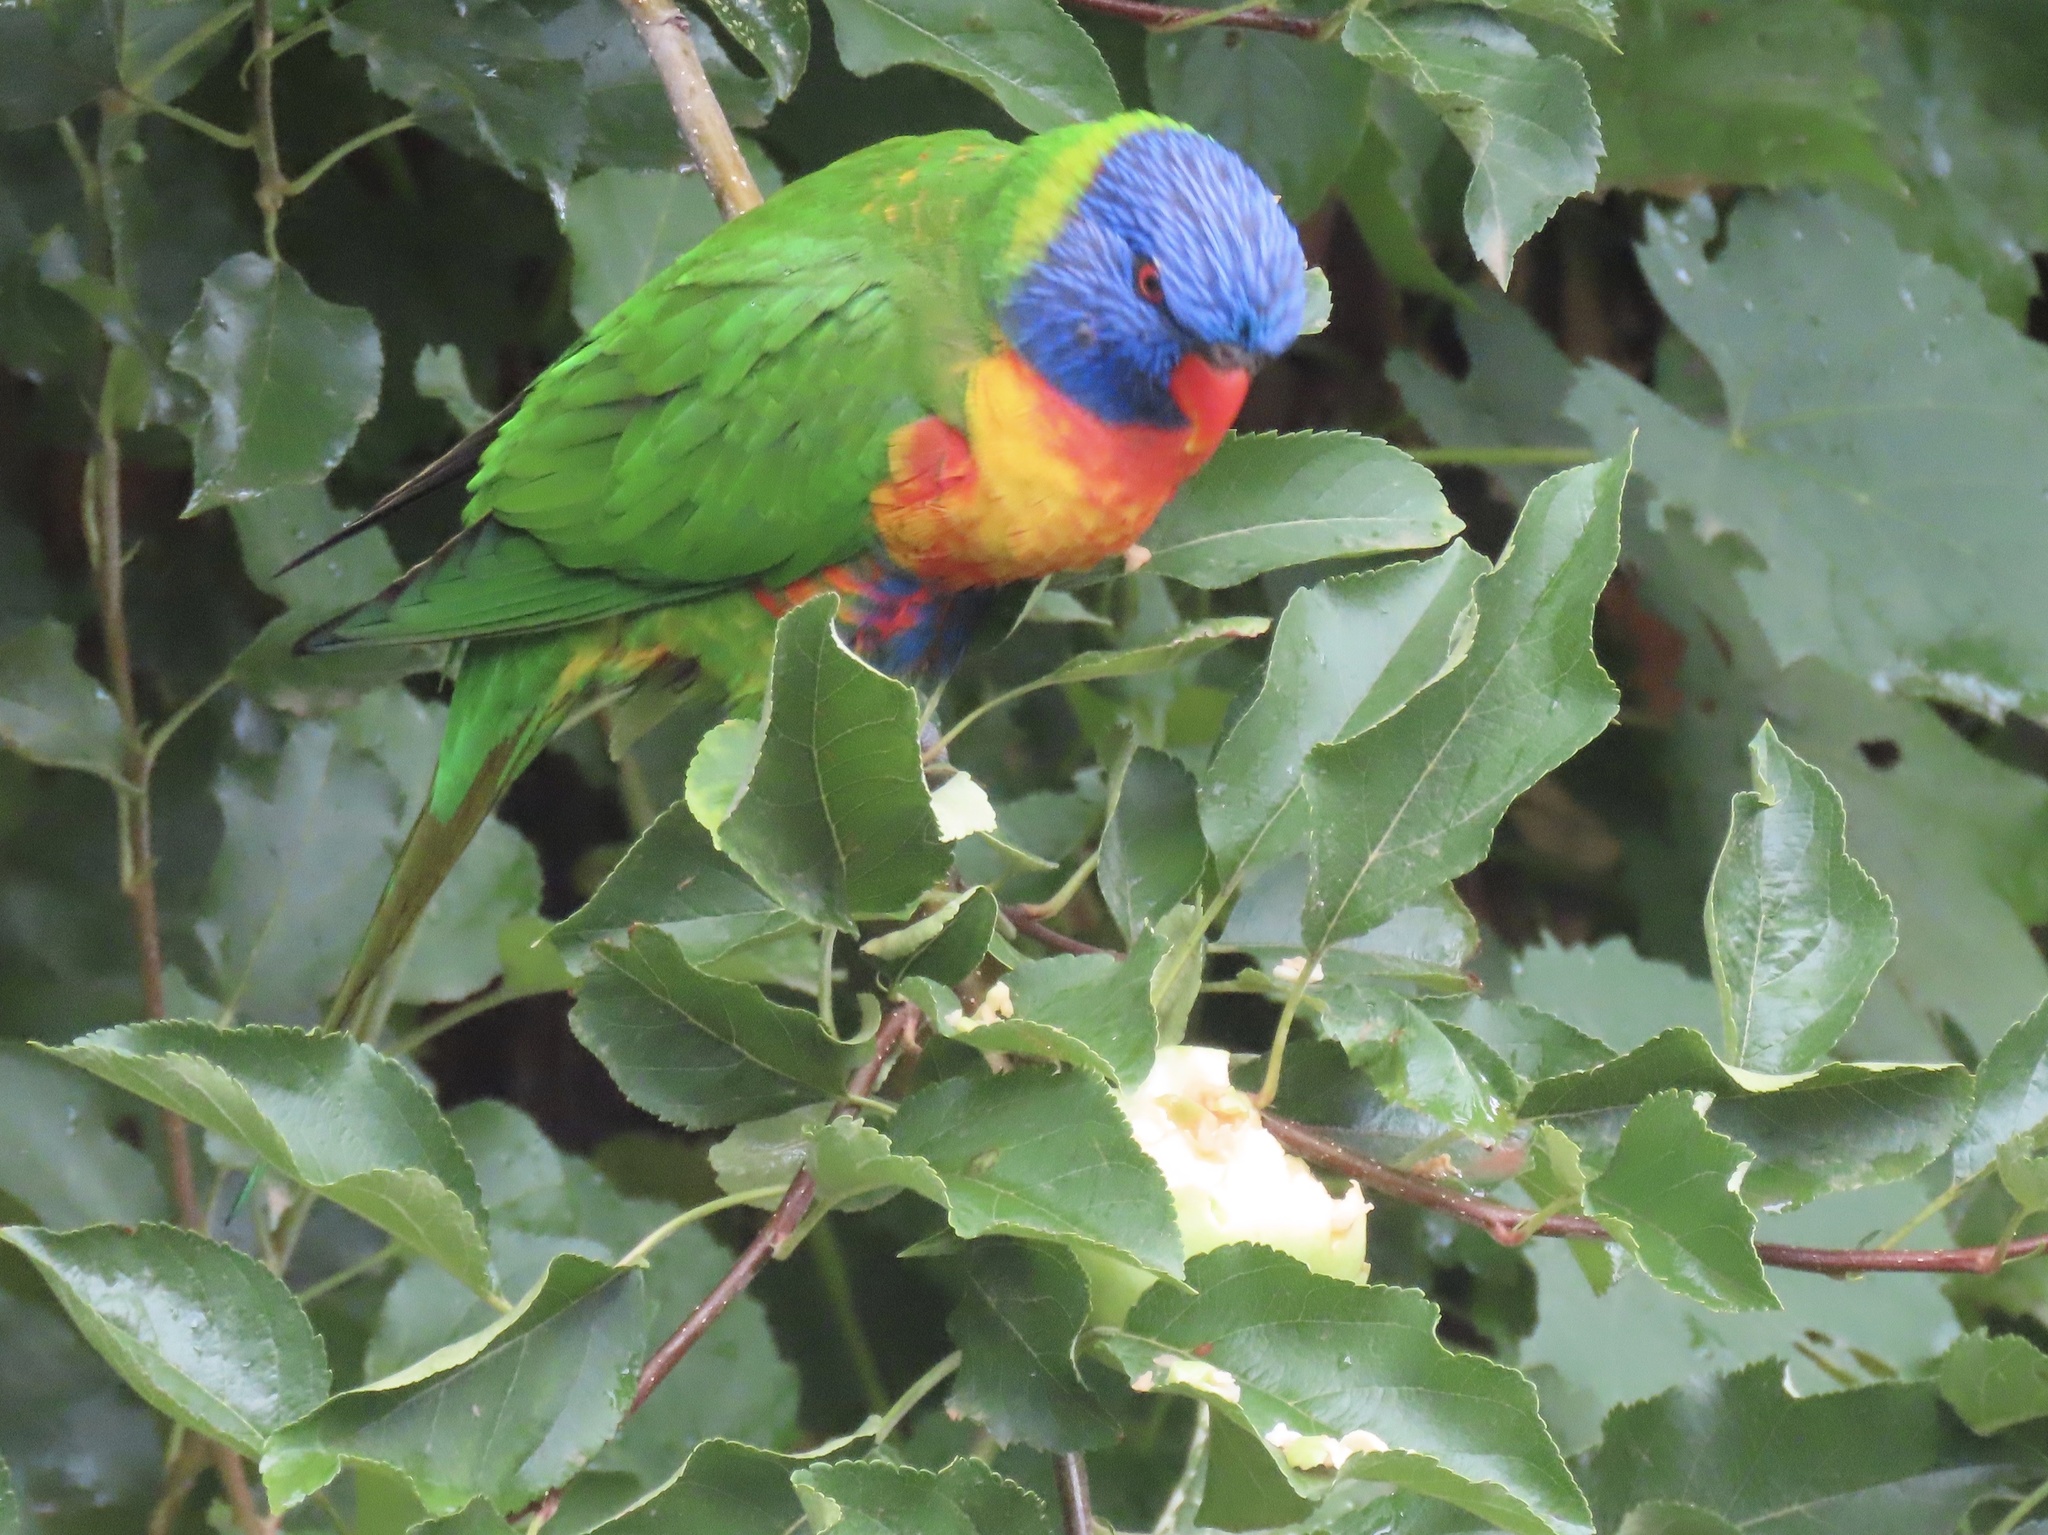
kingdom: Animalia
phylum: Chordata
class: Aves
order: Psittaciformes
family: Psittacidae
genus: Trichoglossus
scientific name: Trichoglossus haematodus
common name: Coconut lorikeet
